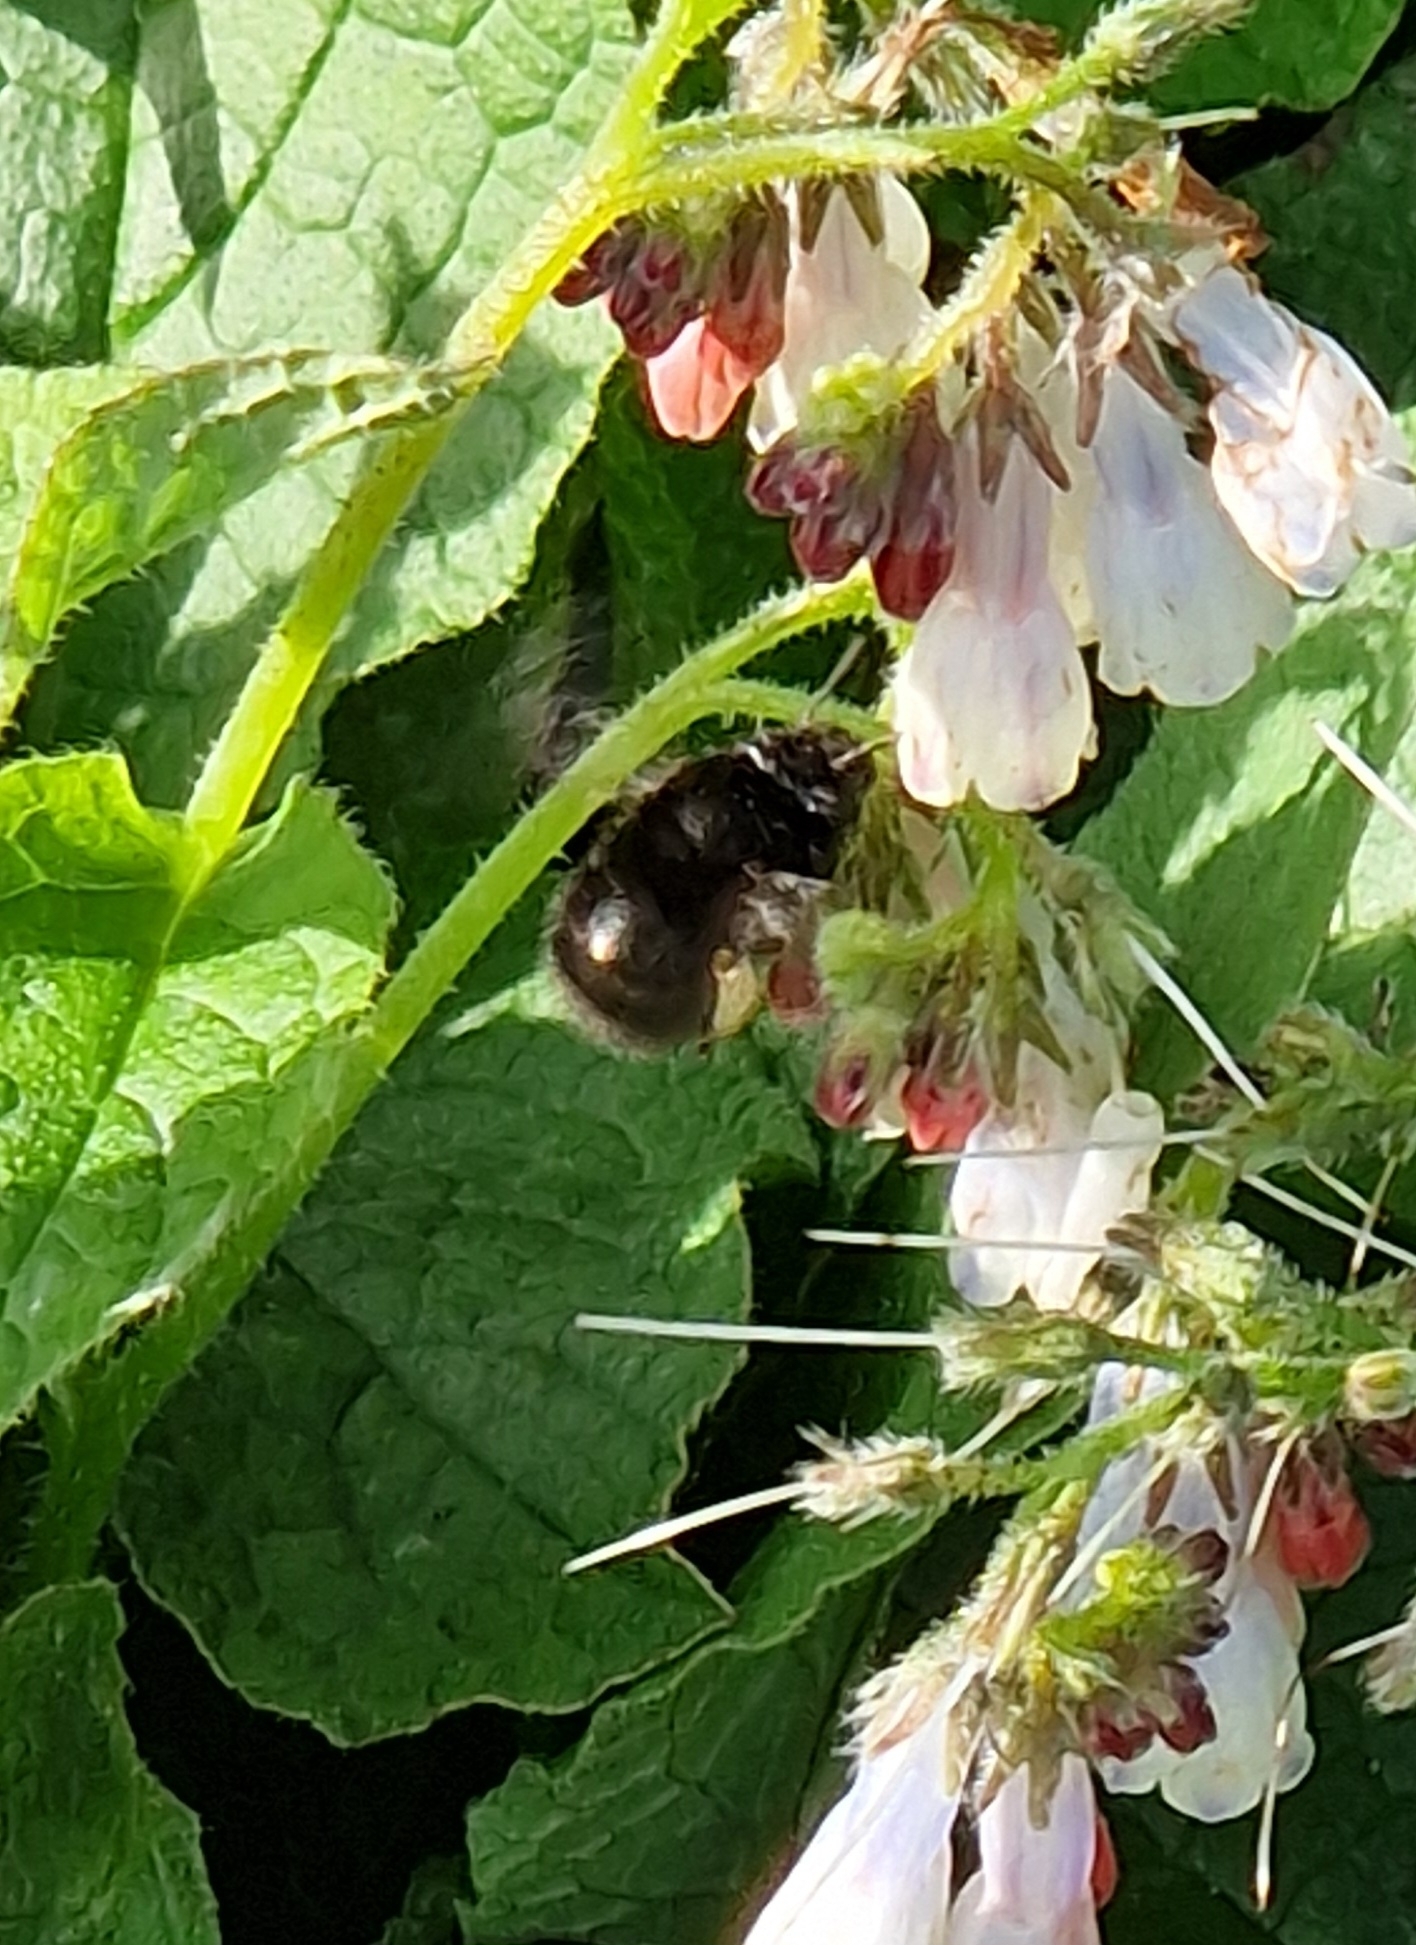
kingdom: Animalia
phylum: Arthropoda
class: Insecta
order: Hymenoptera
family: Apidae
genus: Anthophora
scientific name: Anthophora plumipes
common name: Hairy-footed flower bee
